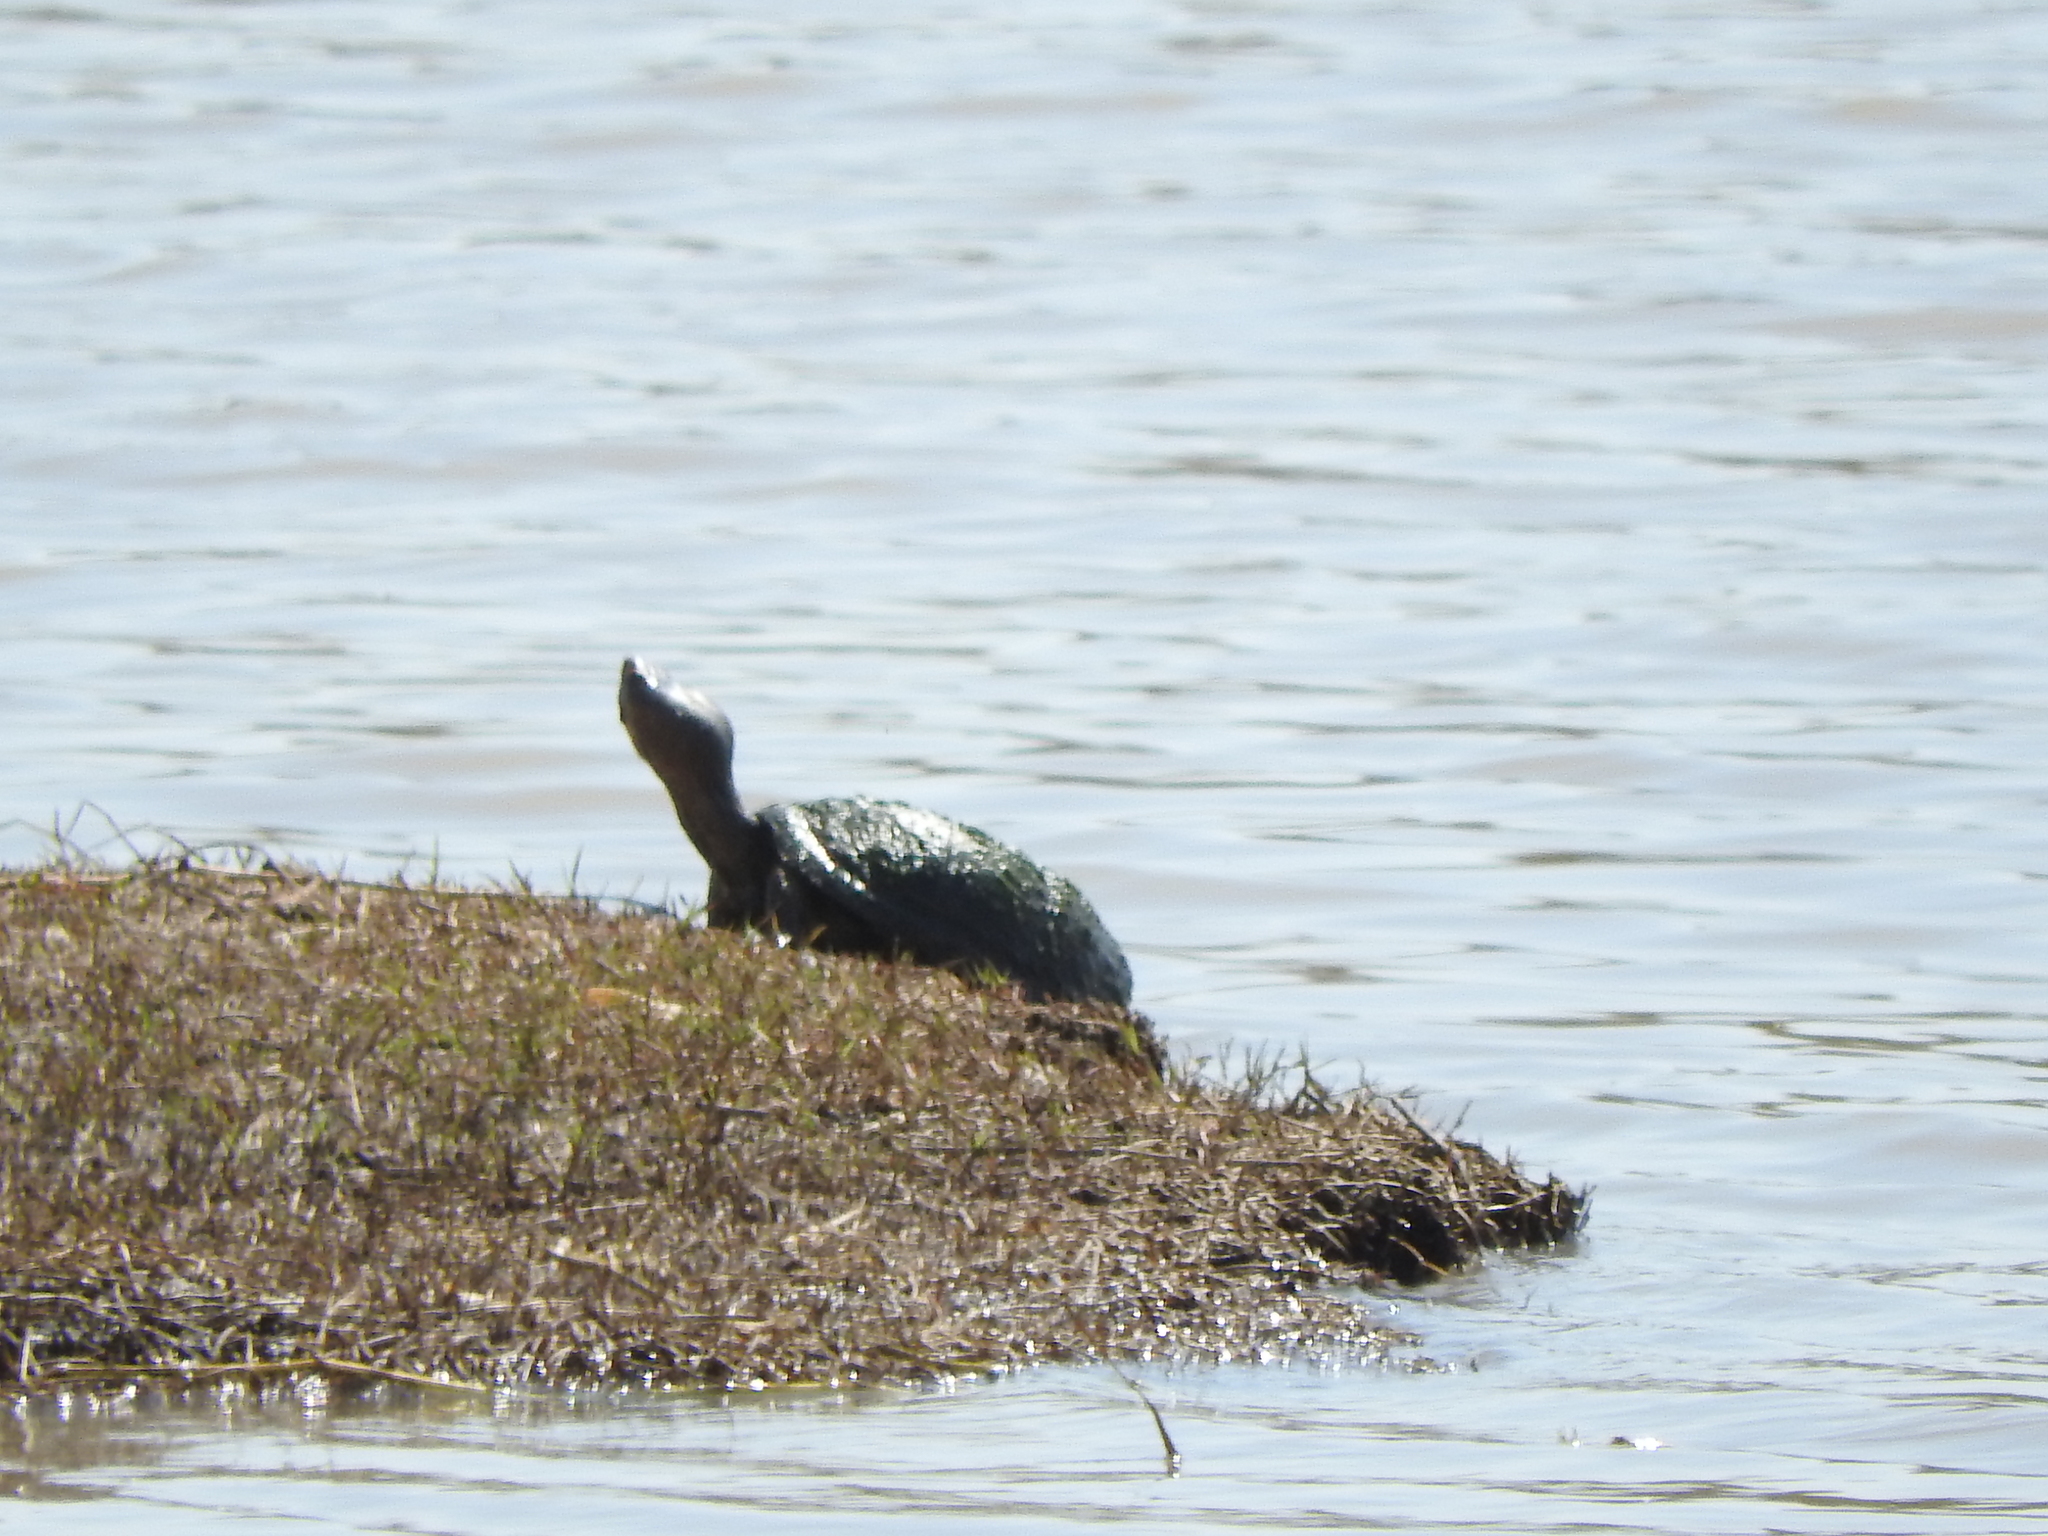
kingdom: Animalia
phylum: Chordata
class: Testudines
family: Kinosternidae
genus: Kinosternon
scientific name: Kinosternon integrum
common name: Mexican mud turtle
